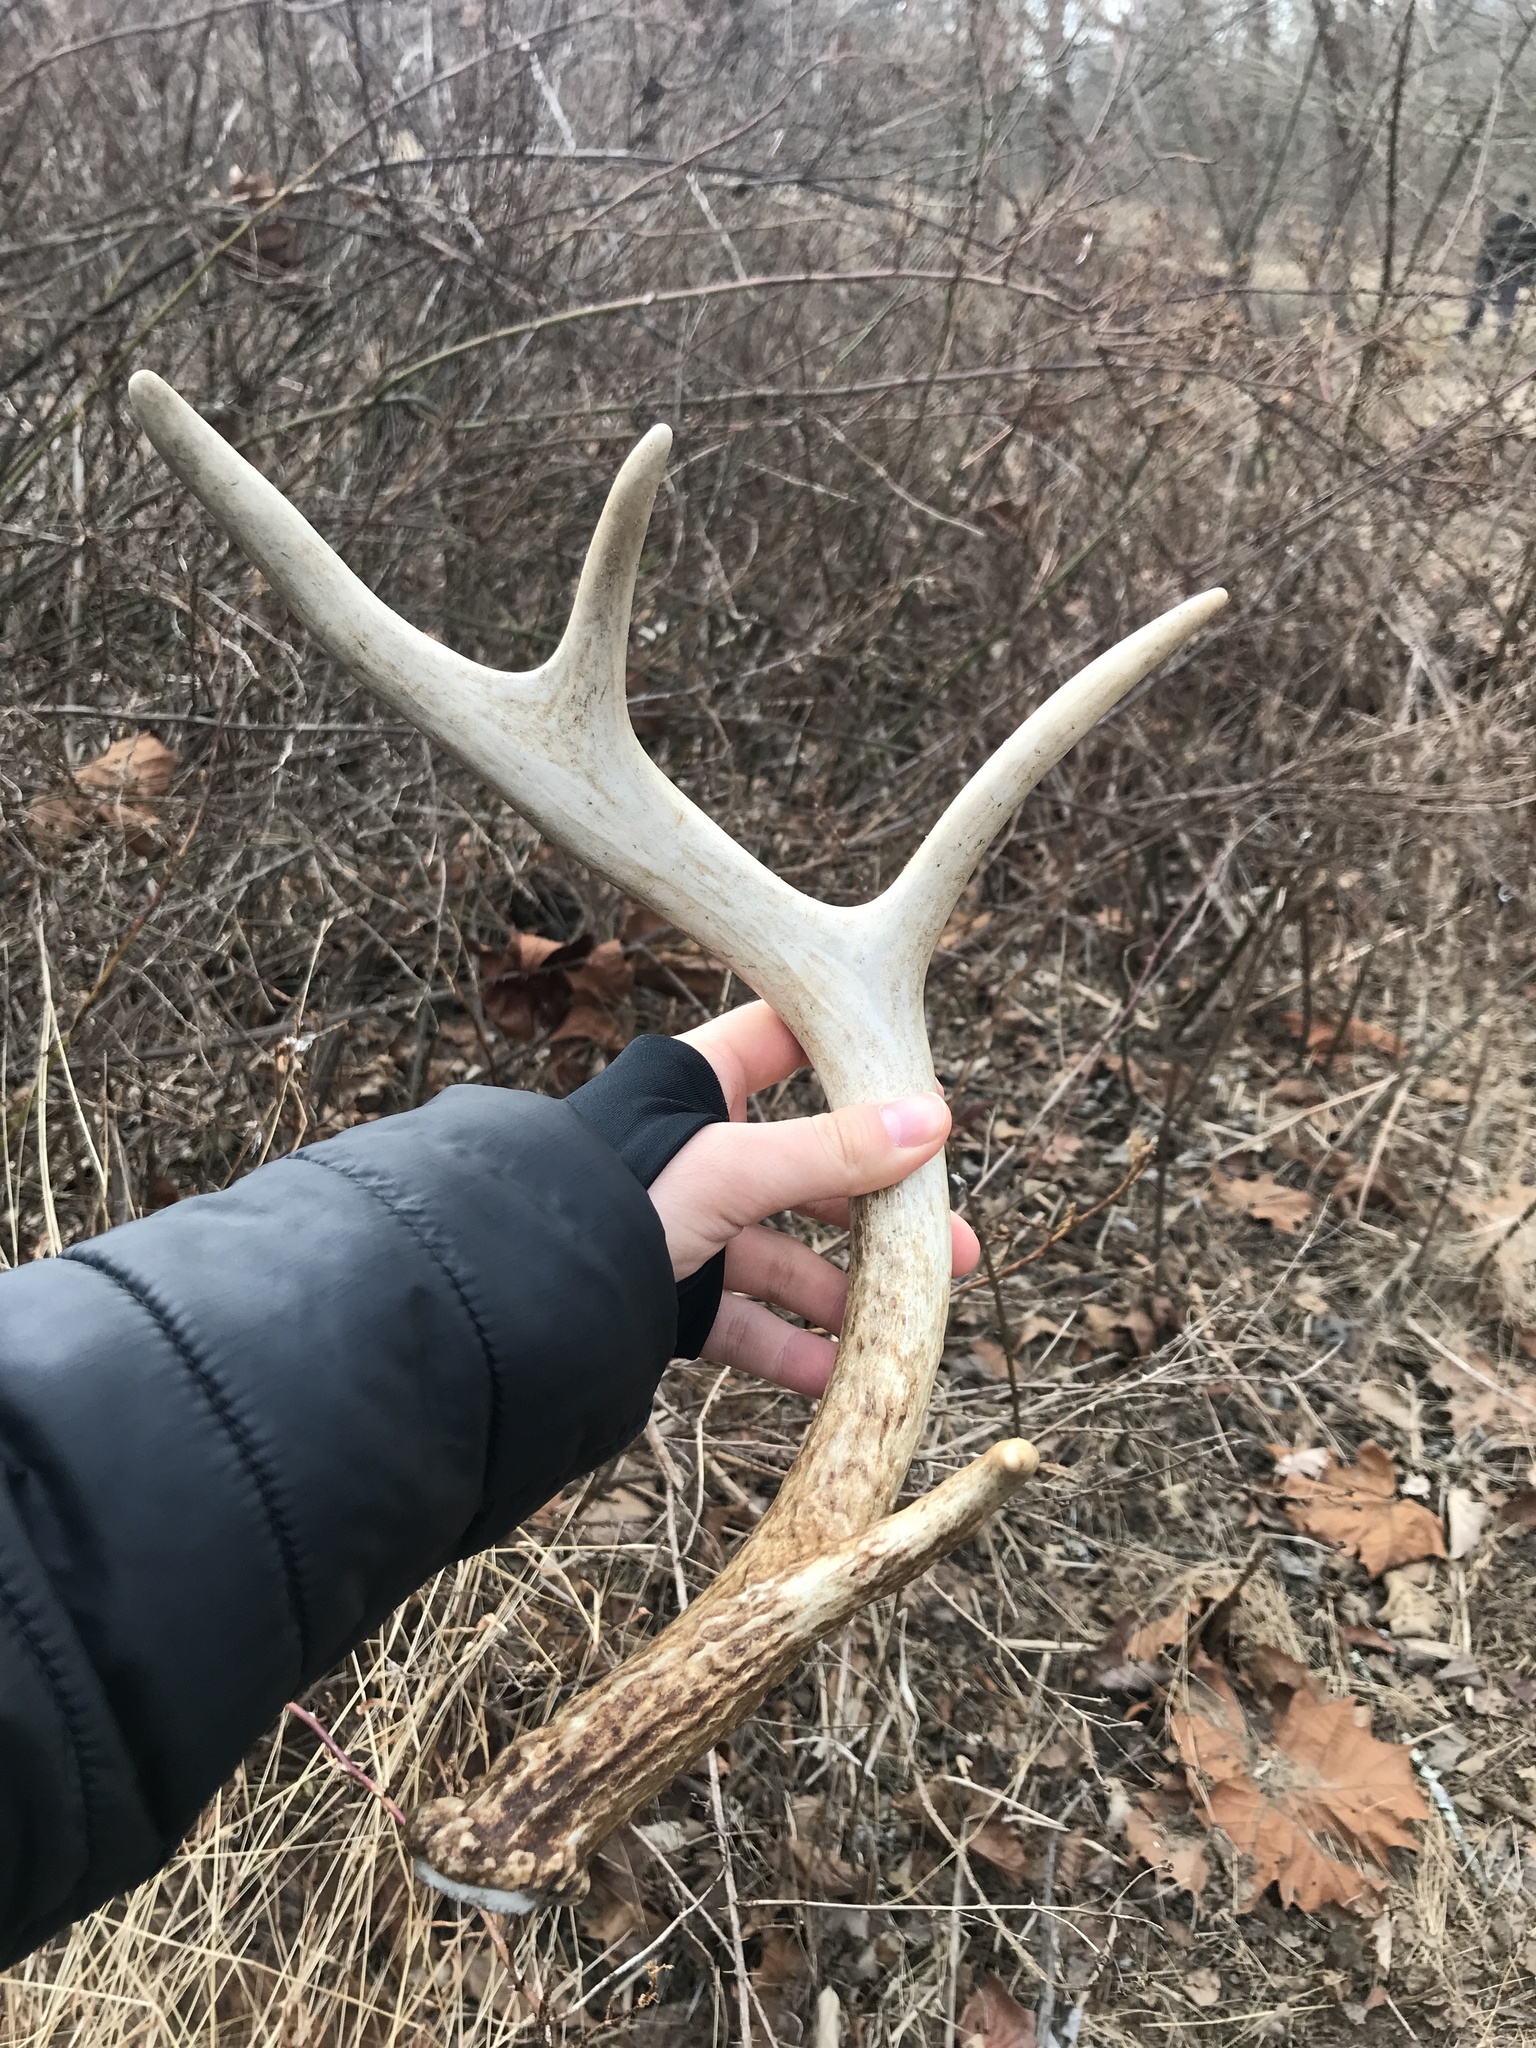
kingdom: Animalia
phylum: Chordata
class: Mammalia
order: Artiodactyla
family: Cervidae
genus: Odocoileus
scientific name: Odocoileus virginianus
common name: White-tailed deer
